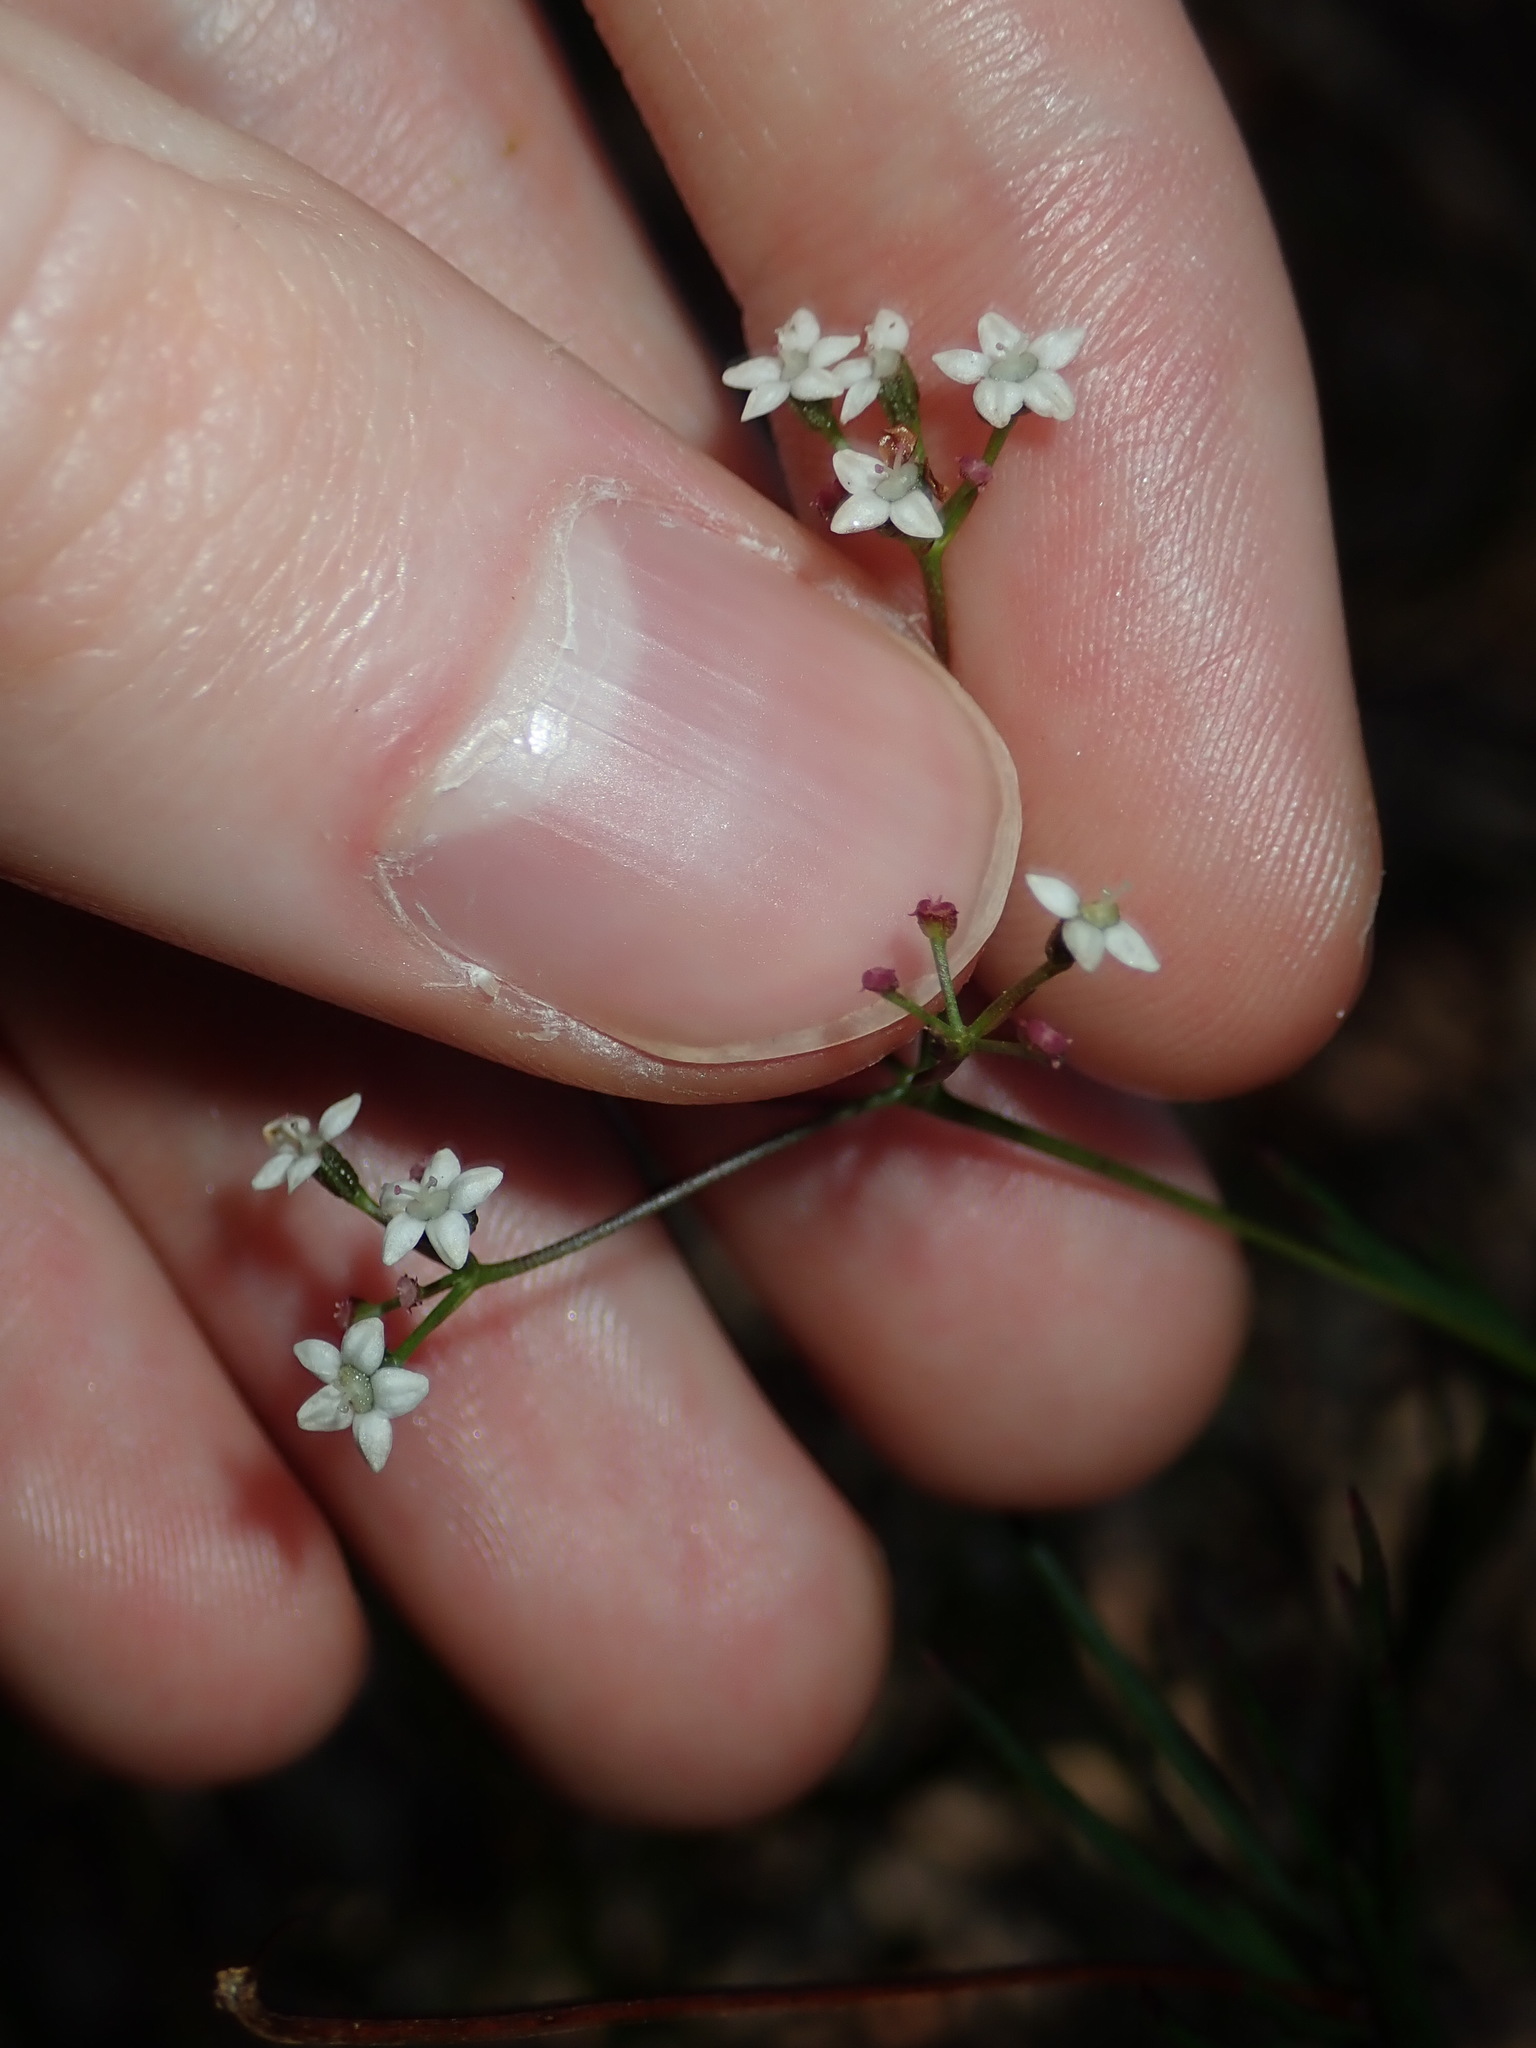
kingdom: Plantae
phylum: Tracheophyta
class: Magnoliopsida
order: Apiales
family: Apiaceae
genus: Platysace
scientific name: Platysace linearifolia
